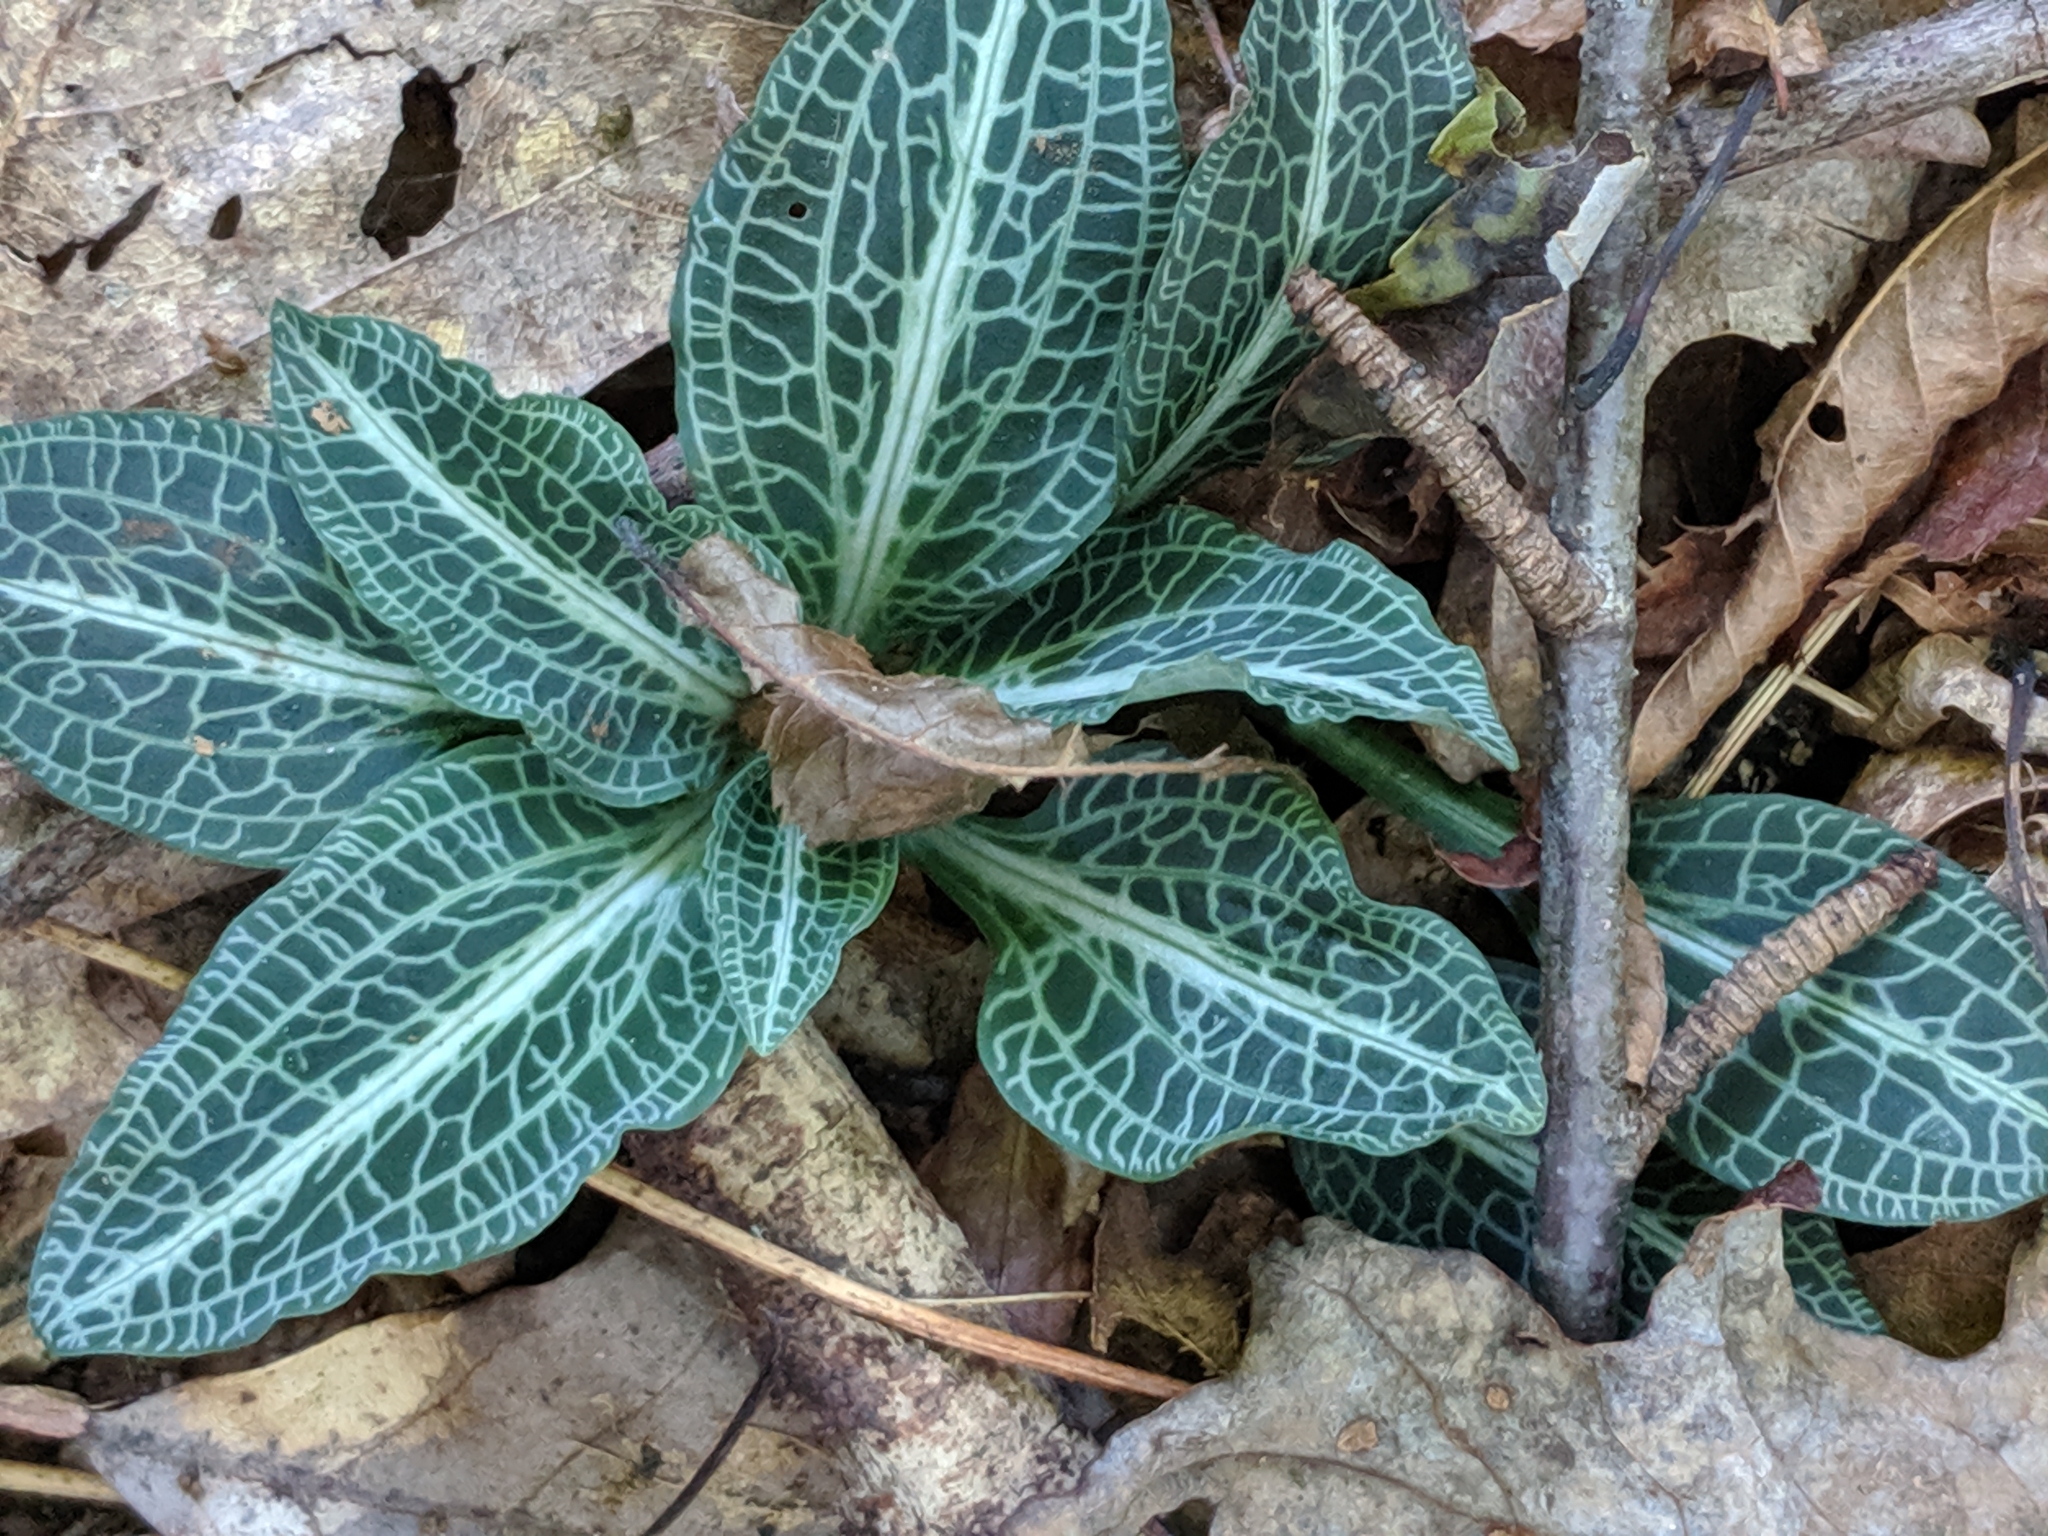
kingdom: Plantae
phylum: Tracheophyta
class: Liliopsida
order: Asparagales
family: Orchidaceae
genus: Goodyera
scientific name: Goodyera pubescens
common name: Downy rattlesnake-plantain
